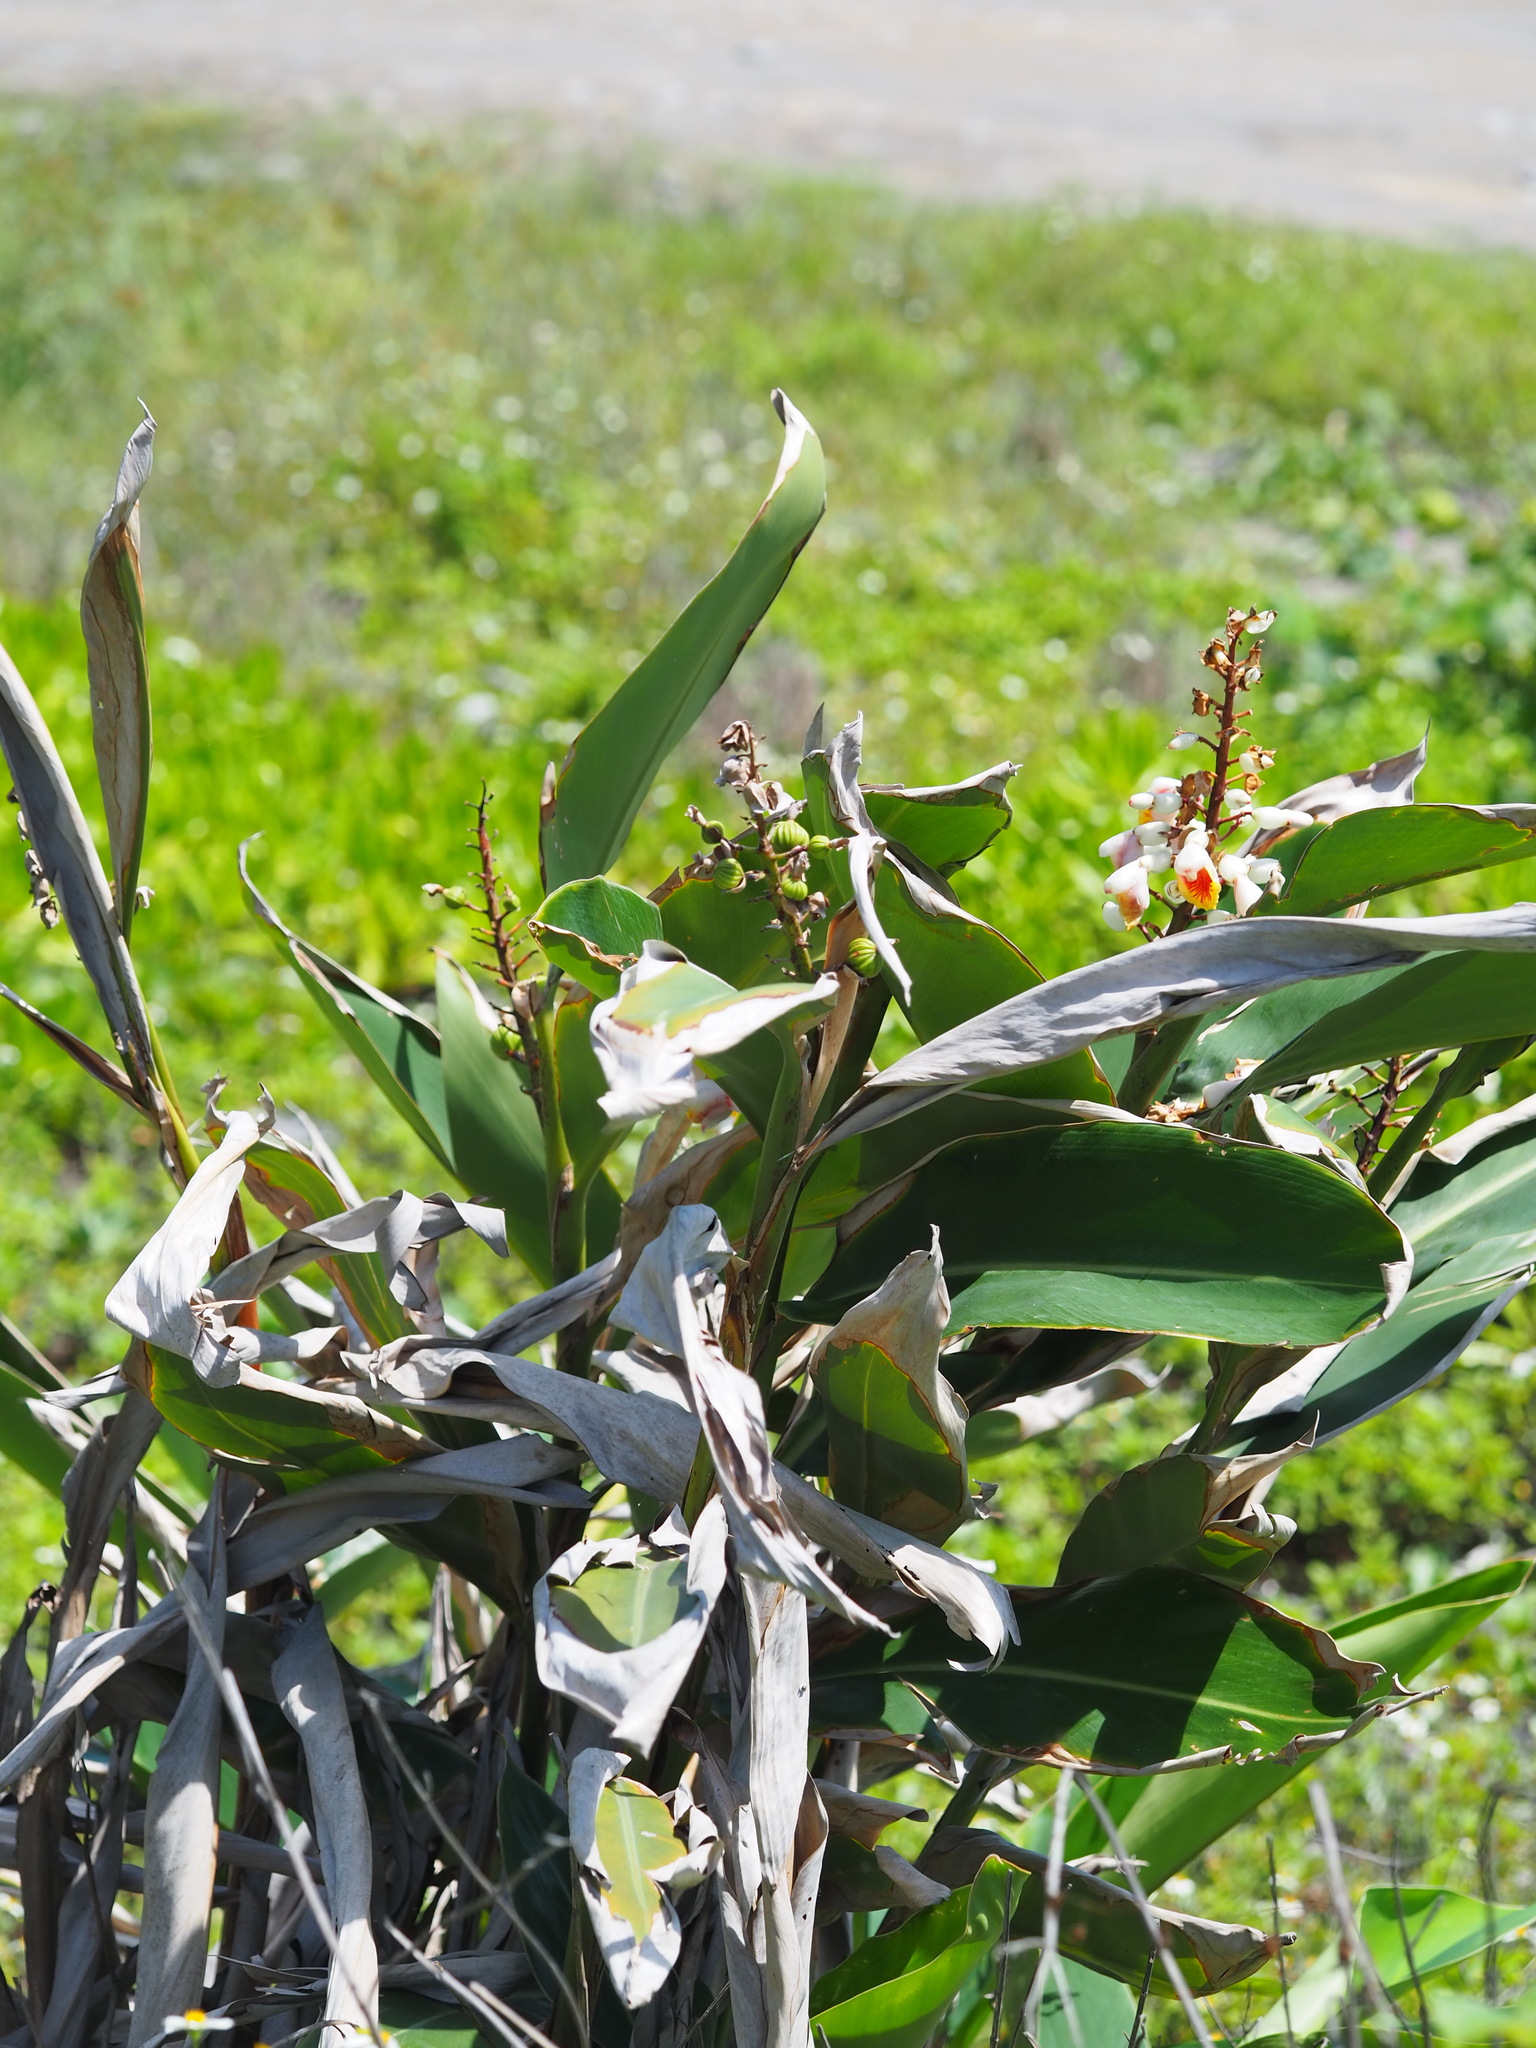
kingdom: Plantae
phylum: Tracheophyta
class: Liliopsida
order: Zingiberales
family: Zingiberaceae
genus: Alpinia
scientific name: Alpinia koshunensis
